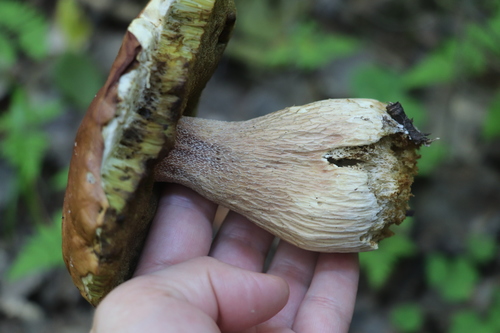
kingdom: Fungi
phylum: Basidiomycota
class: Agaricomycetes
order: Boletales
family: Boletaceae
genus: Boletus
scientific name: Boletus edulis
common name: Cep
